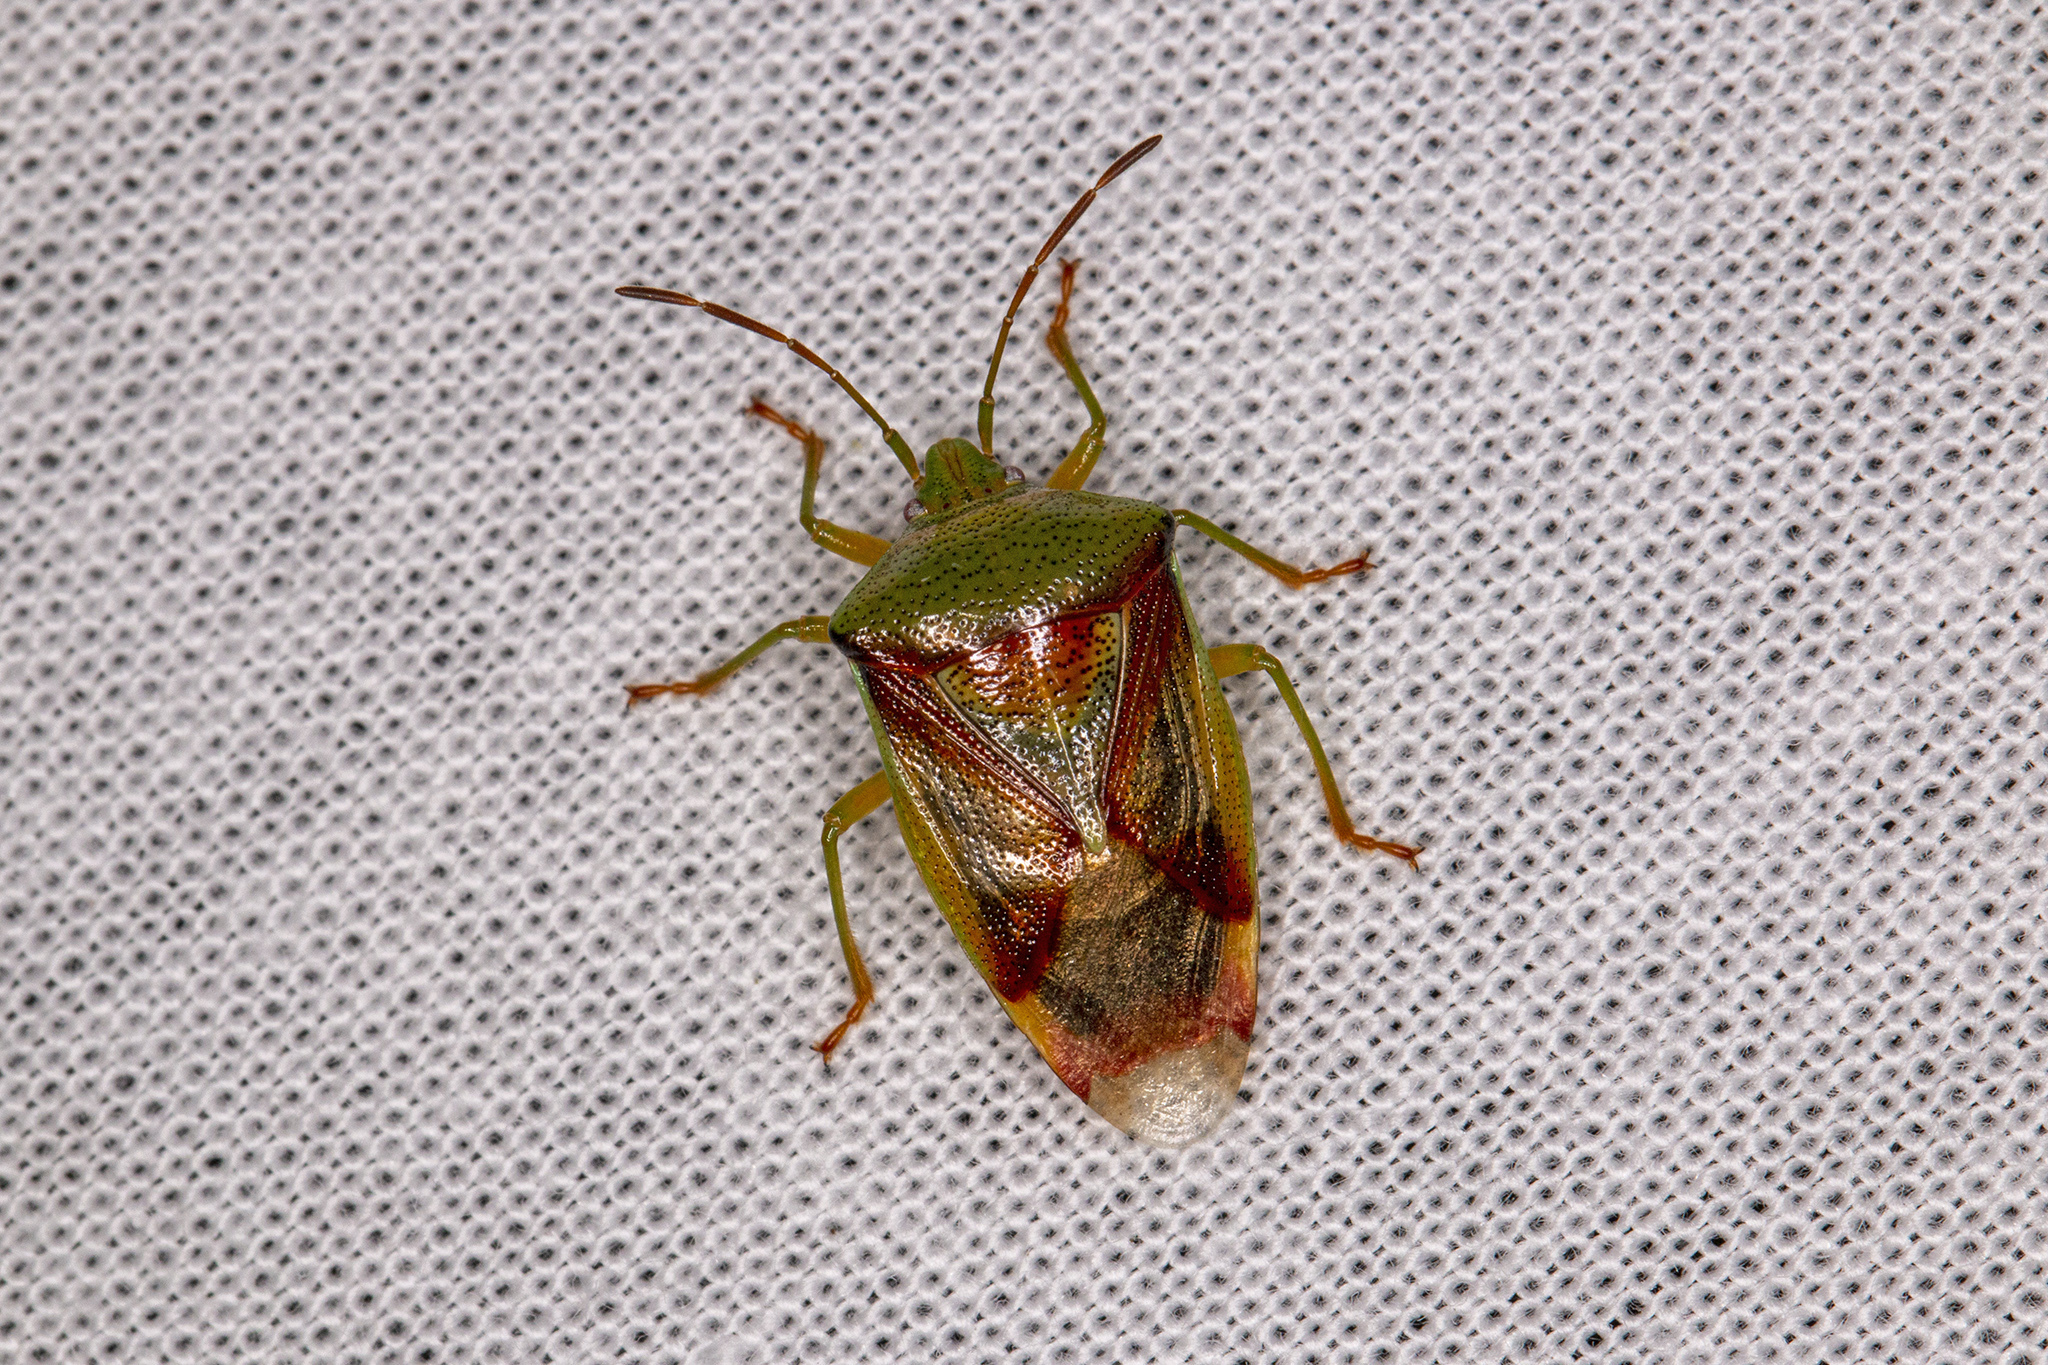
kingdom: Animalia
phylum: Arthropoda
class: Insecta
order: Hemiptera
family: Acanthosomatidae
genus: Elasmostethus
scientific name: Elasmostethus interstinctus
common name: Birch shieldbug
